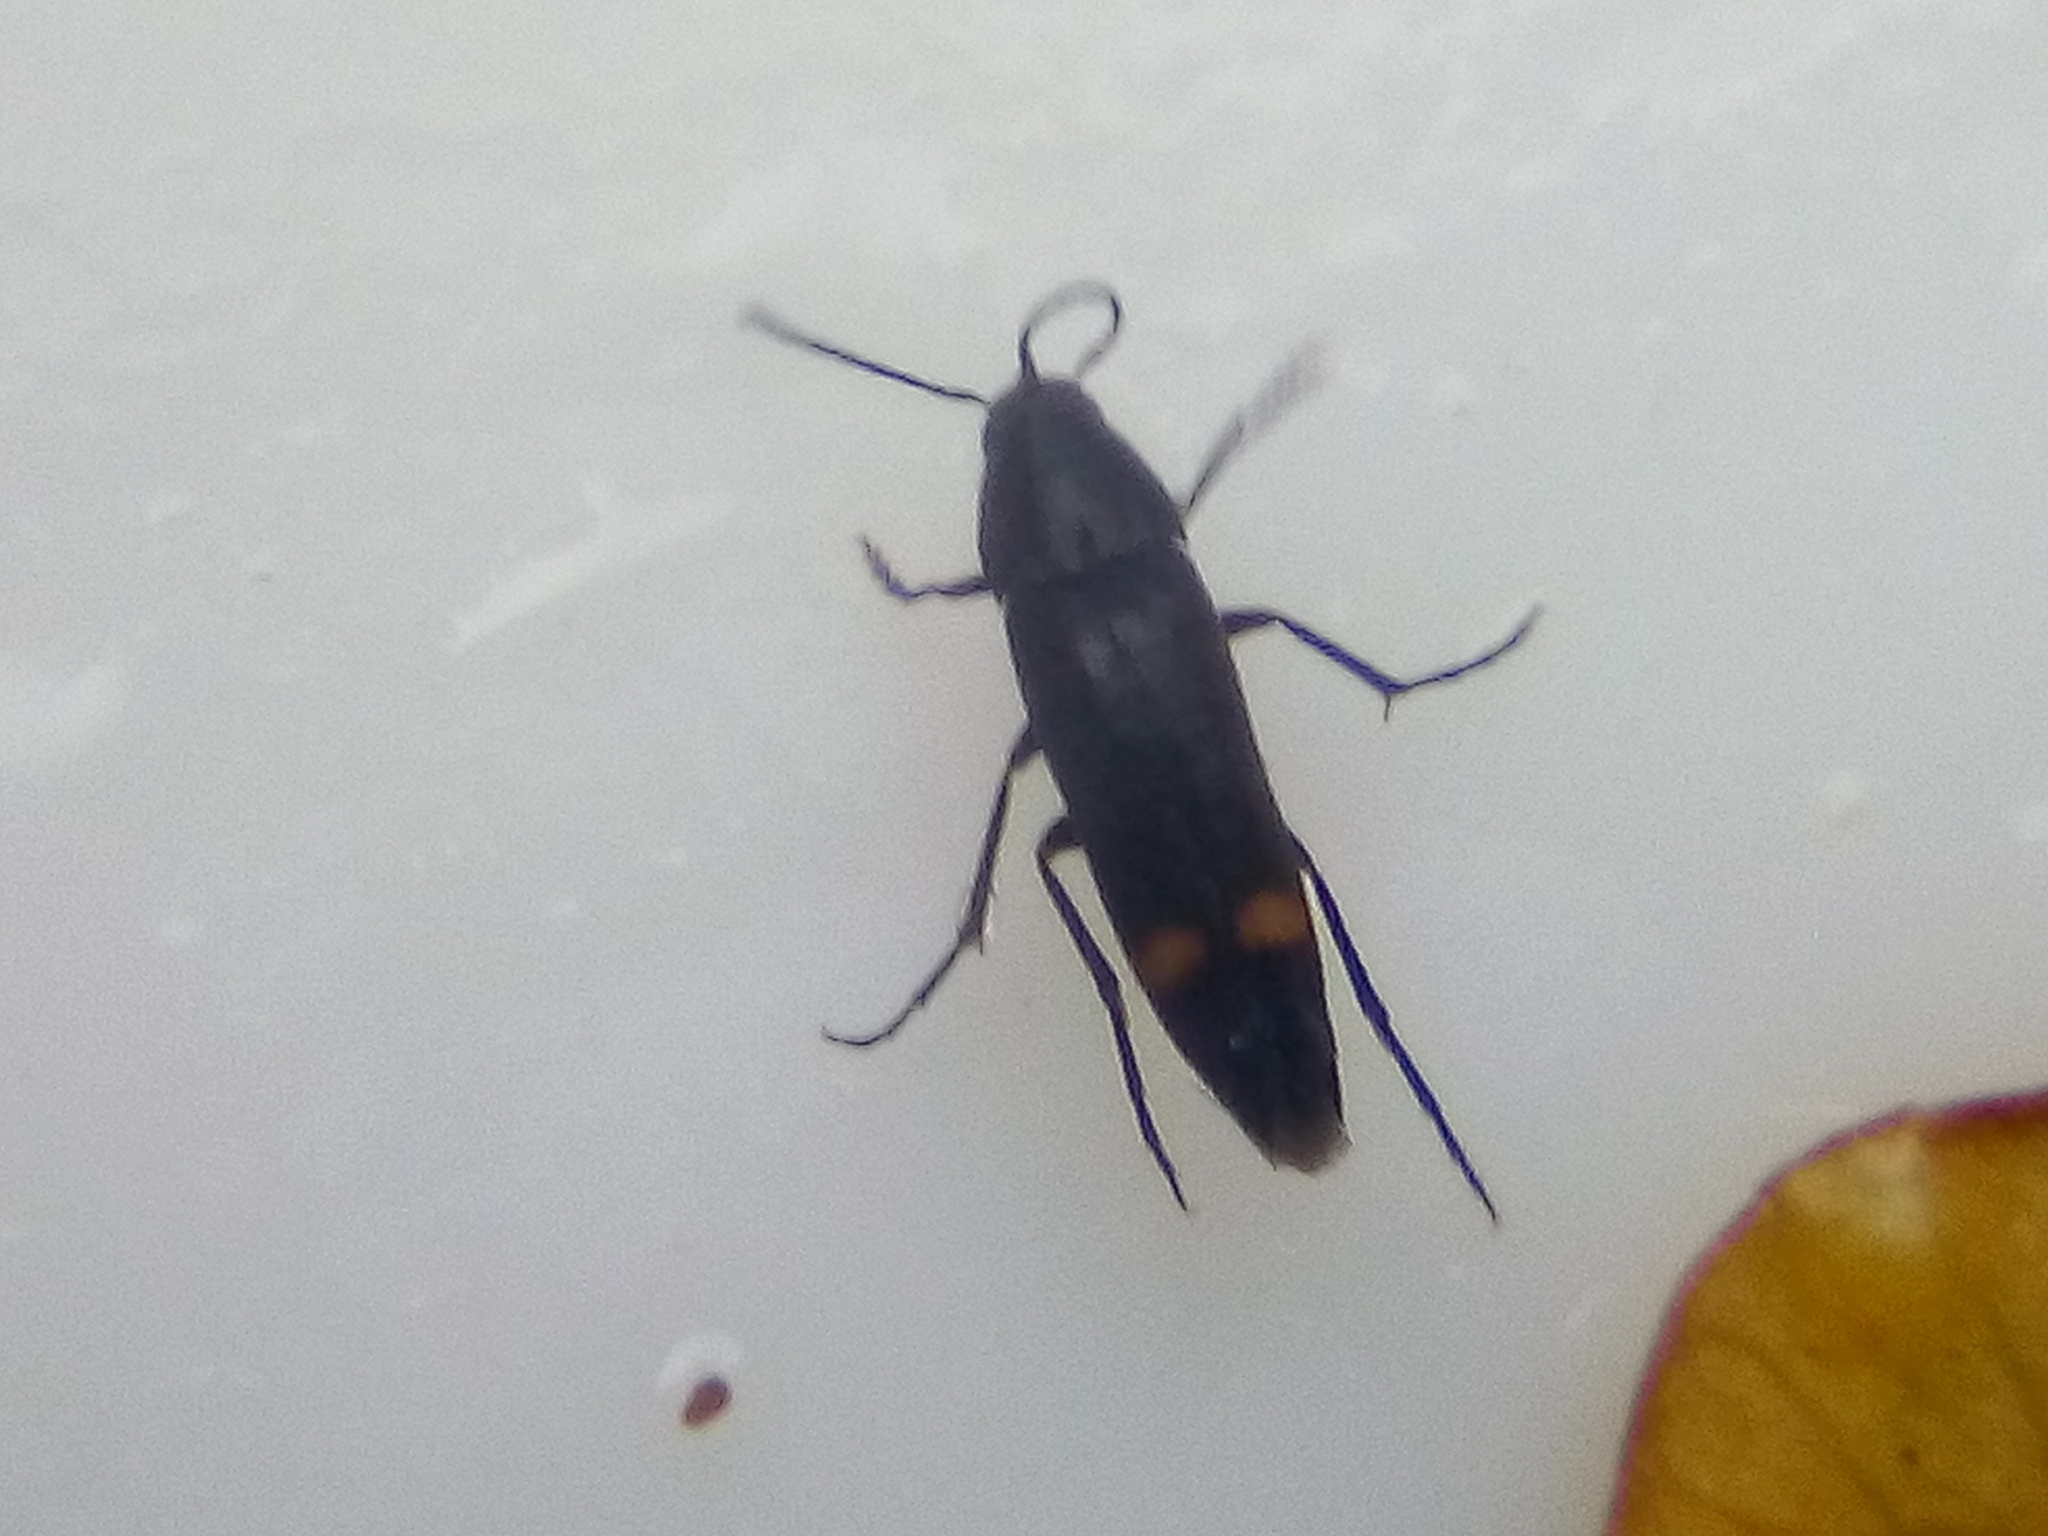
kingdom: Animalia
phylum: Arthropoda
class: Insecta
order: Coleoptera
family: Melandryidae
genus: Ctenoplectron
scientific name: Ctenoplectron
